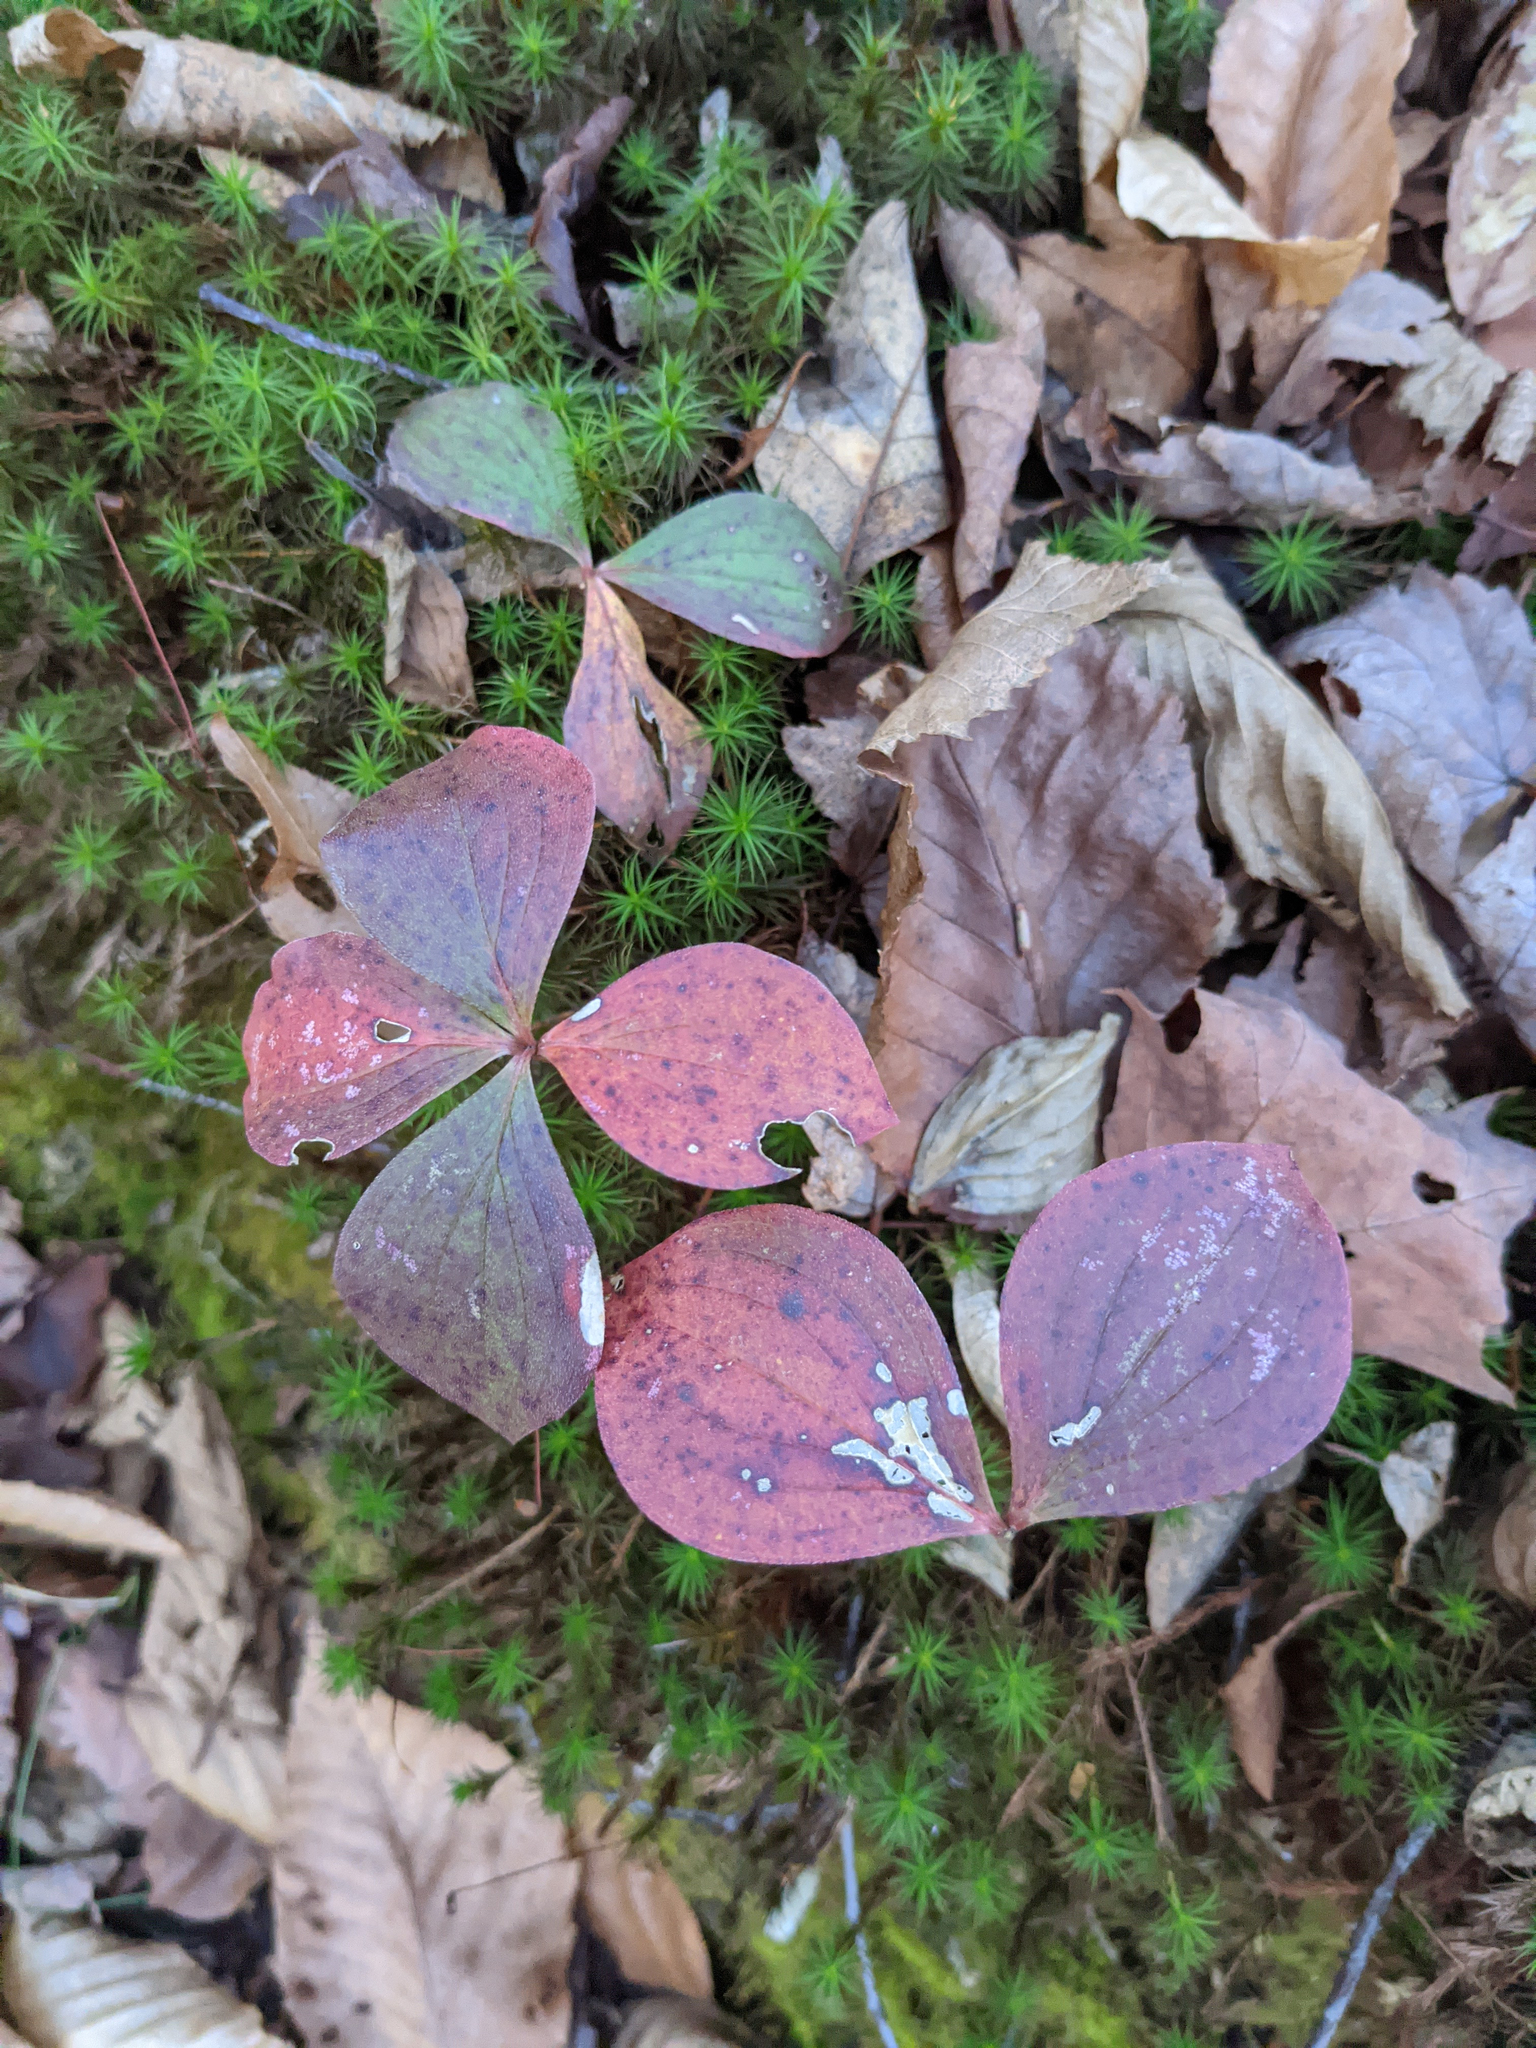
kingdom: Plantae
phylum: Tracheophyta
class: Magnoliopsida
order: Cornales
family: Cornaceae
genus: Cornus
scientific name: Cornus canadensis
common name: Creeping dogwood
